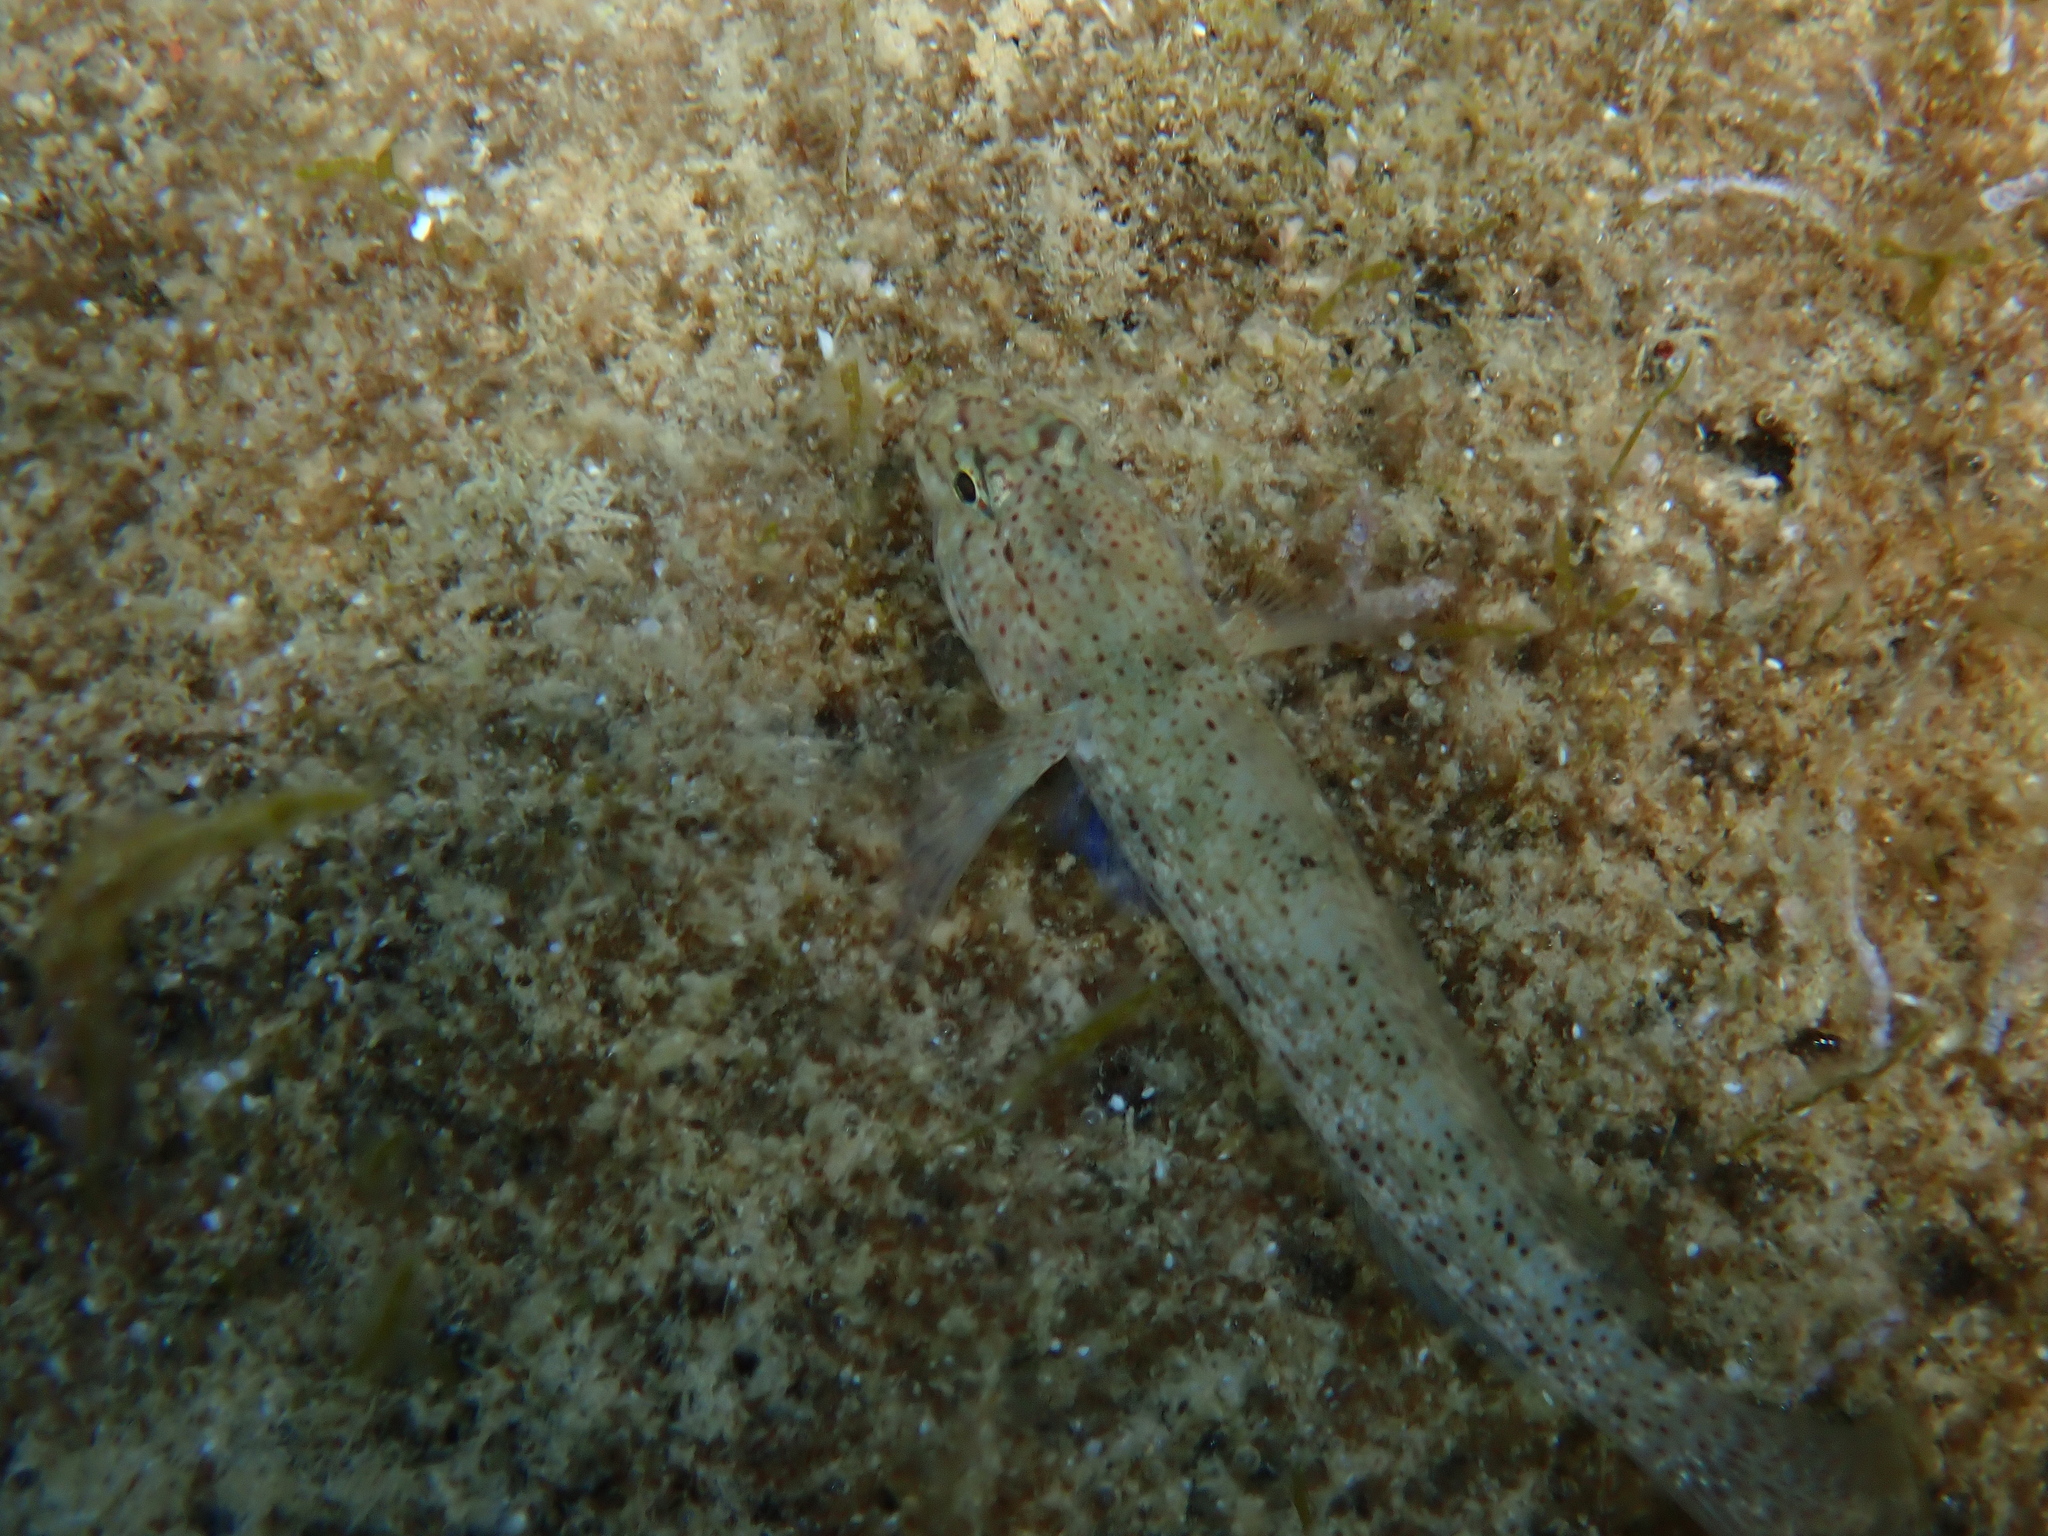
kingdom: Animalia
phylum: Chordata
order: Perciformes
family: Gobiidae
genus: Gobius
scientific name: Gobius bucchichi
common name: Bucchich's goby
